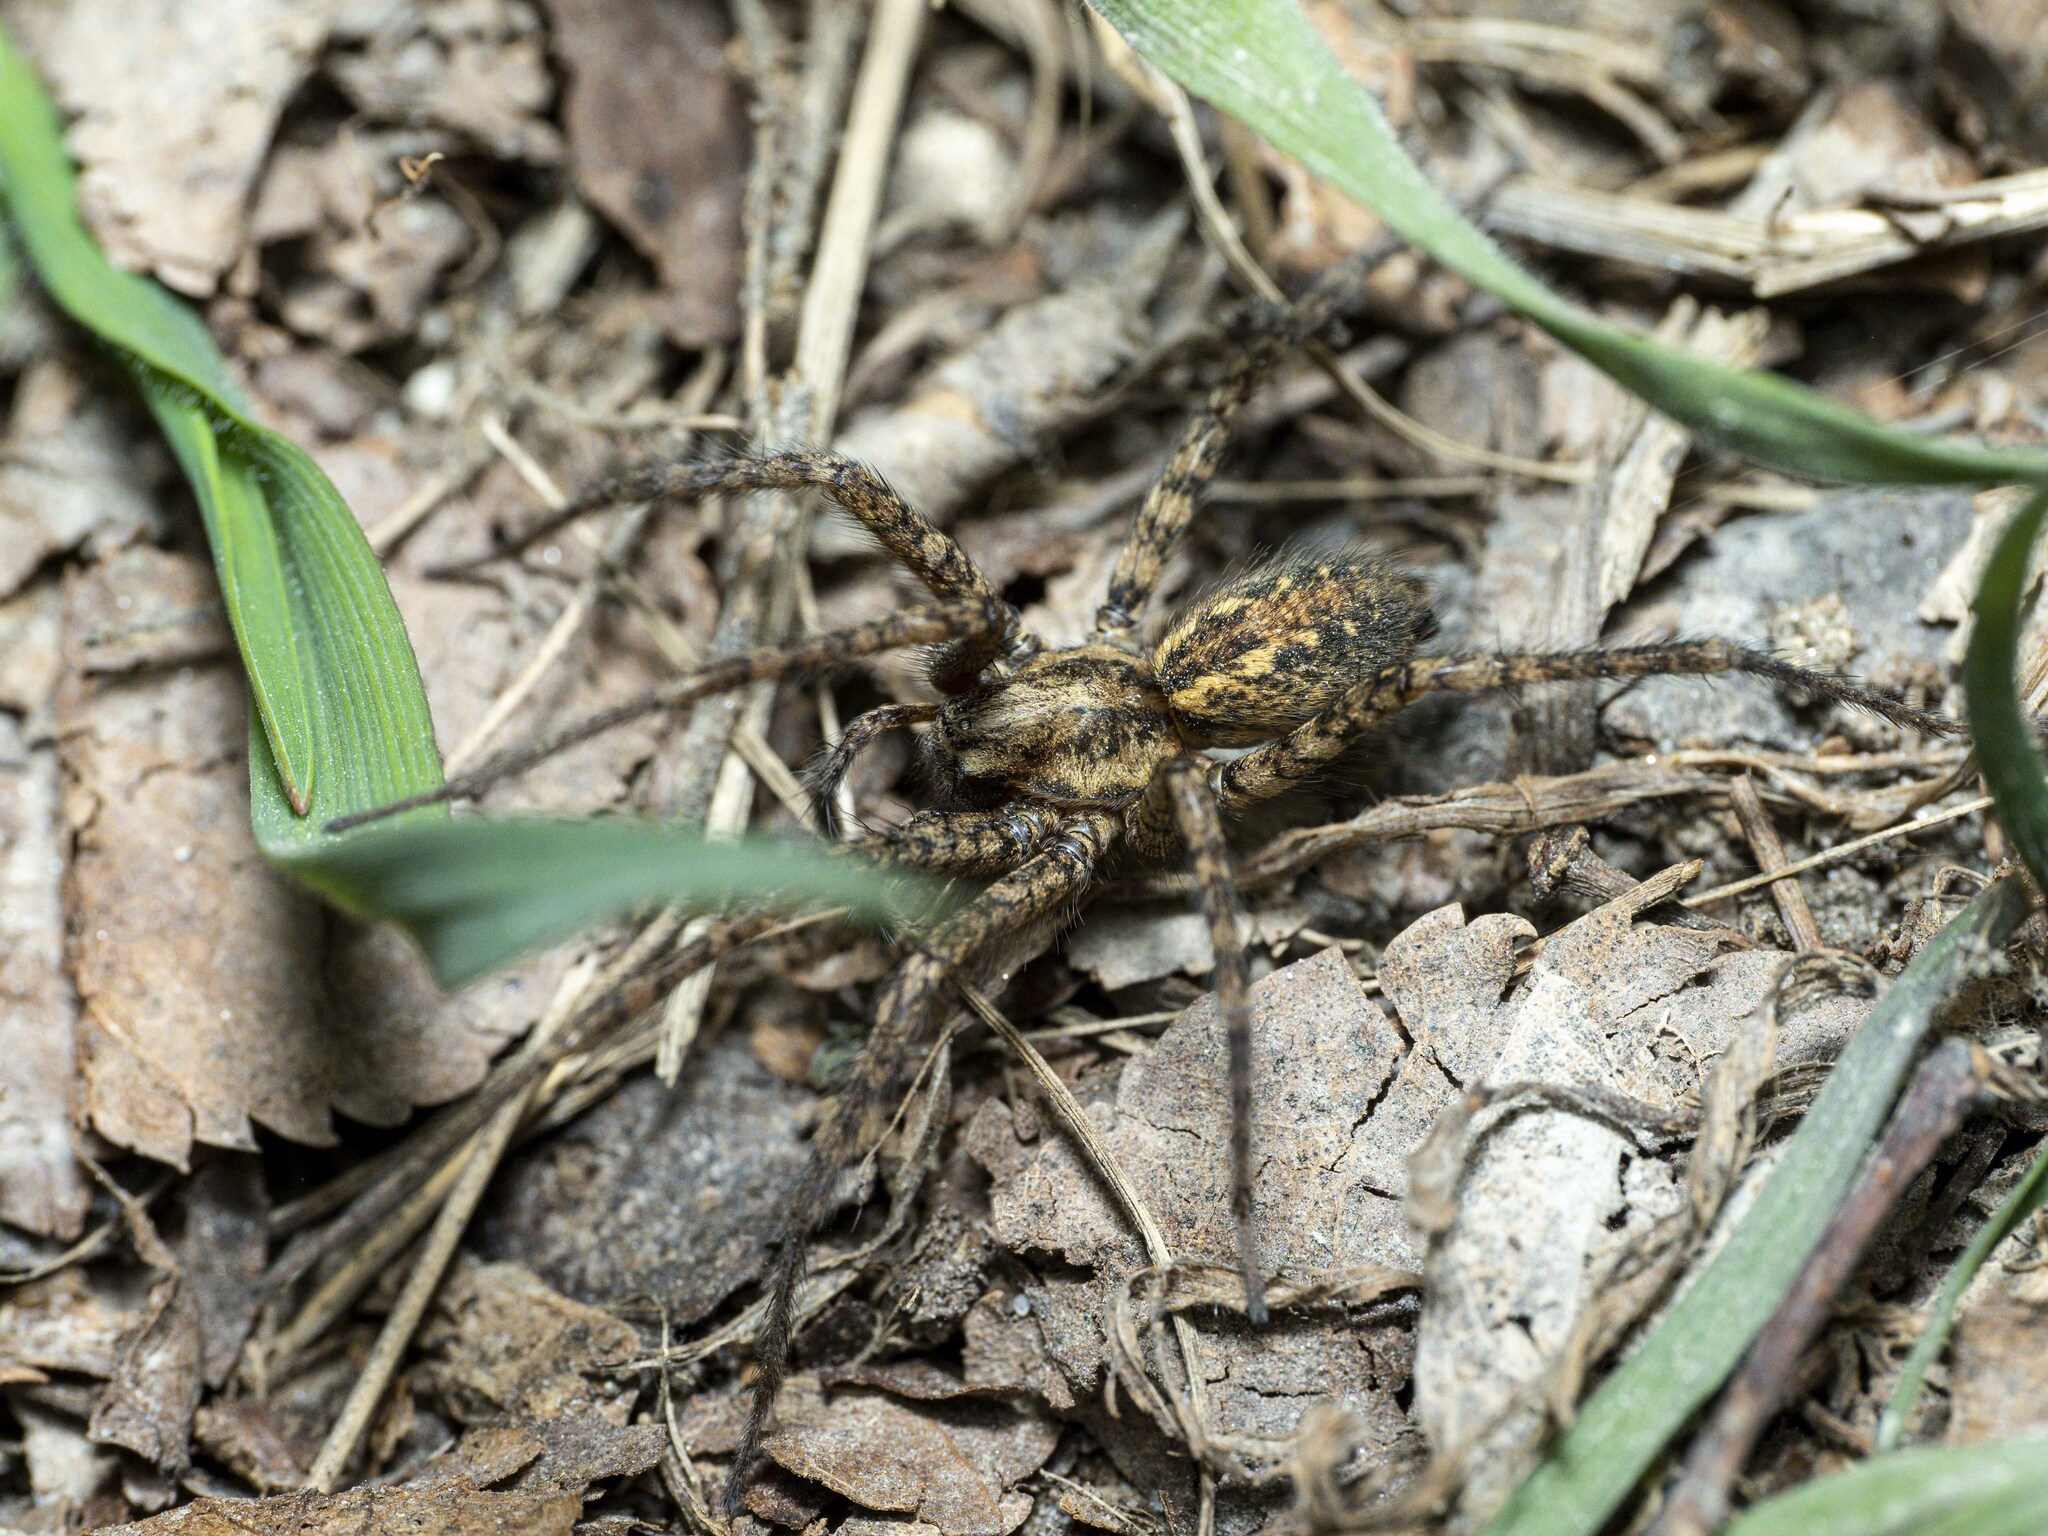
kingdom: Animalia
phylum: Arthropoda
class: Arachnida
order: Araneae
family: Agelenidae
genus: Tegenaria
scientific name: Tegenaria ferruginea
